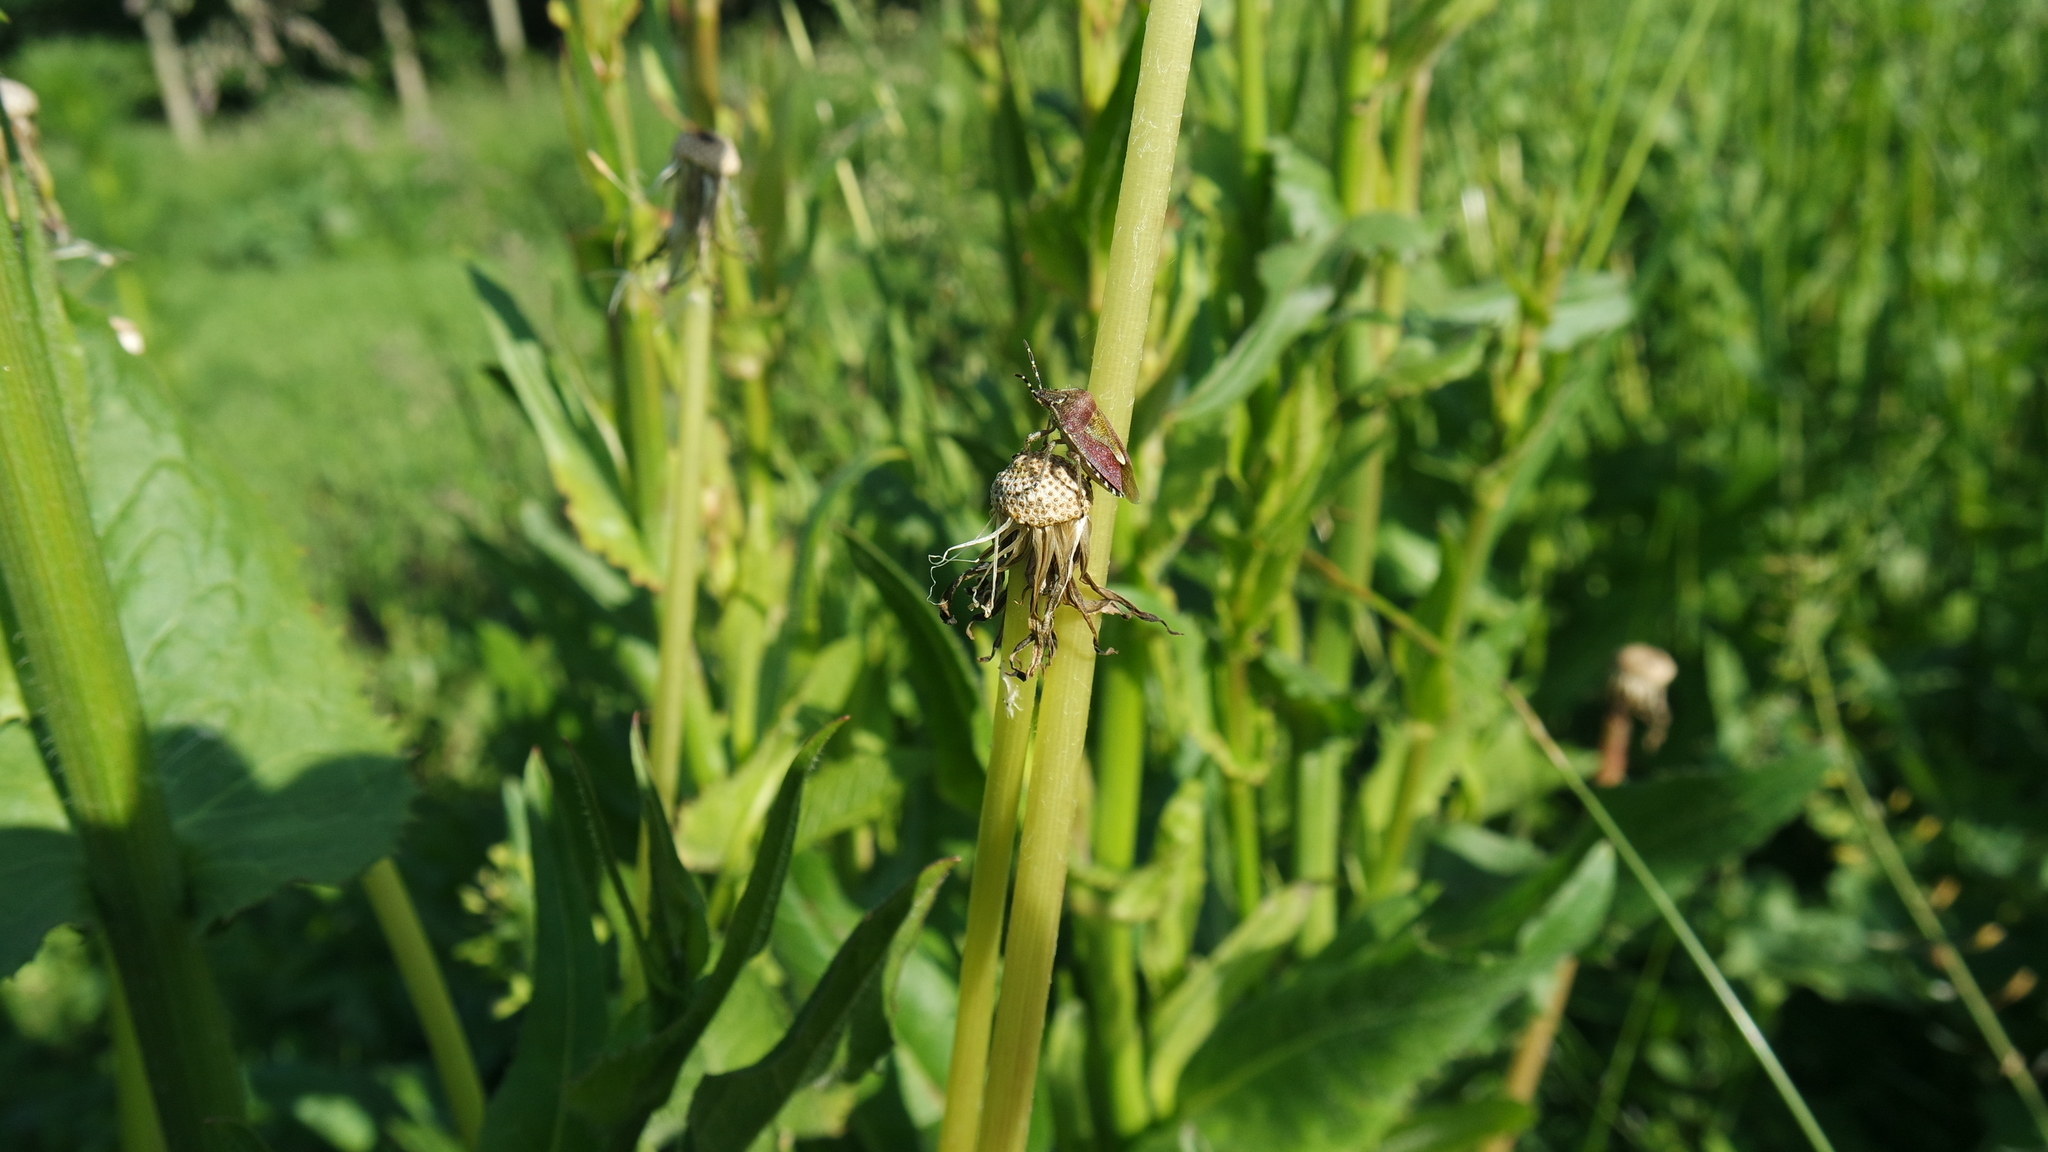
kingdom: Animalia
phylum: Arthropoda
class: Insecta
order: Hemiptera
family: Pentatomidae
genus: Dolycoris
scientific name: Dolycoris baccarum
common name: Sloe bug
